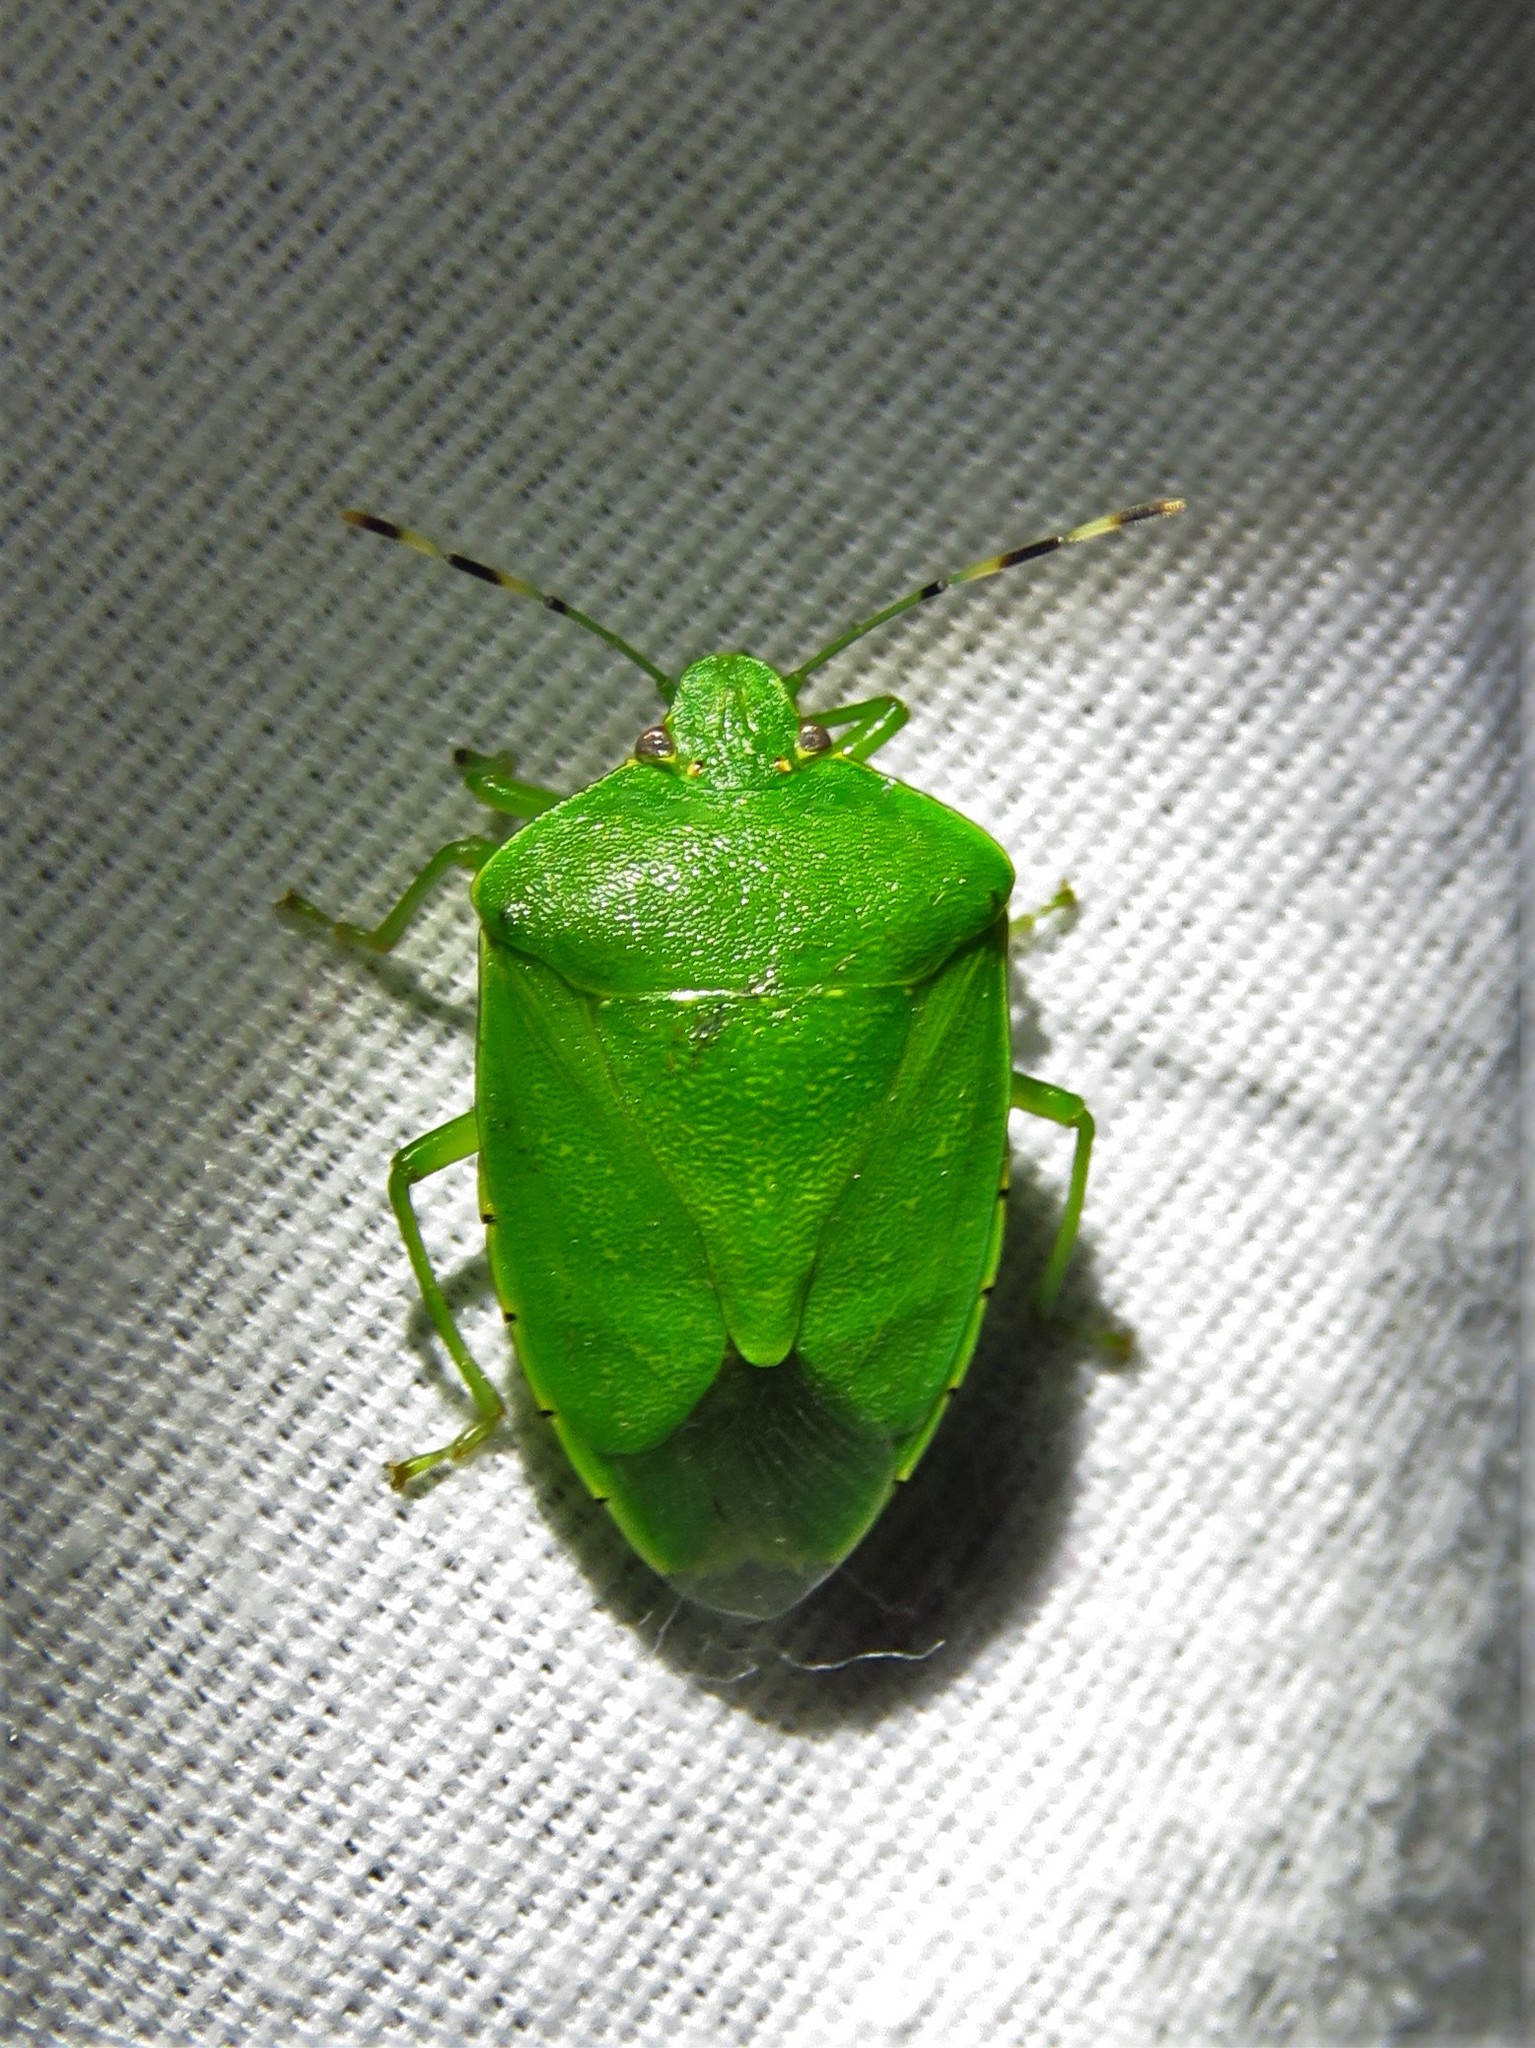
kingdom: Animalia
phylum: Arthropoda
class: Insecta
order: Hemiptera
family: Pentatomidae
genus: Chinavia
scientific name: Chinavia hilaris
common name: Green stink bug
